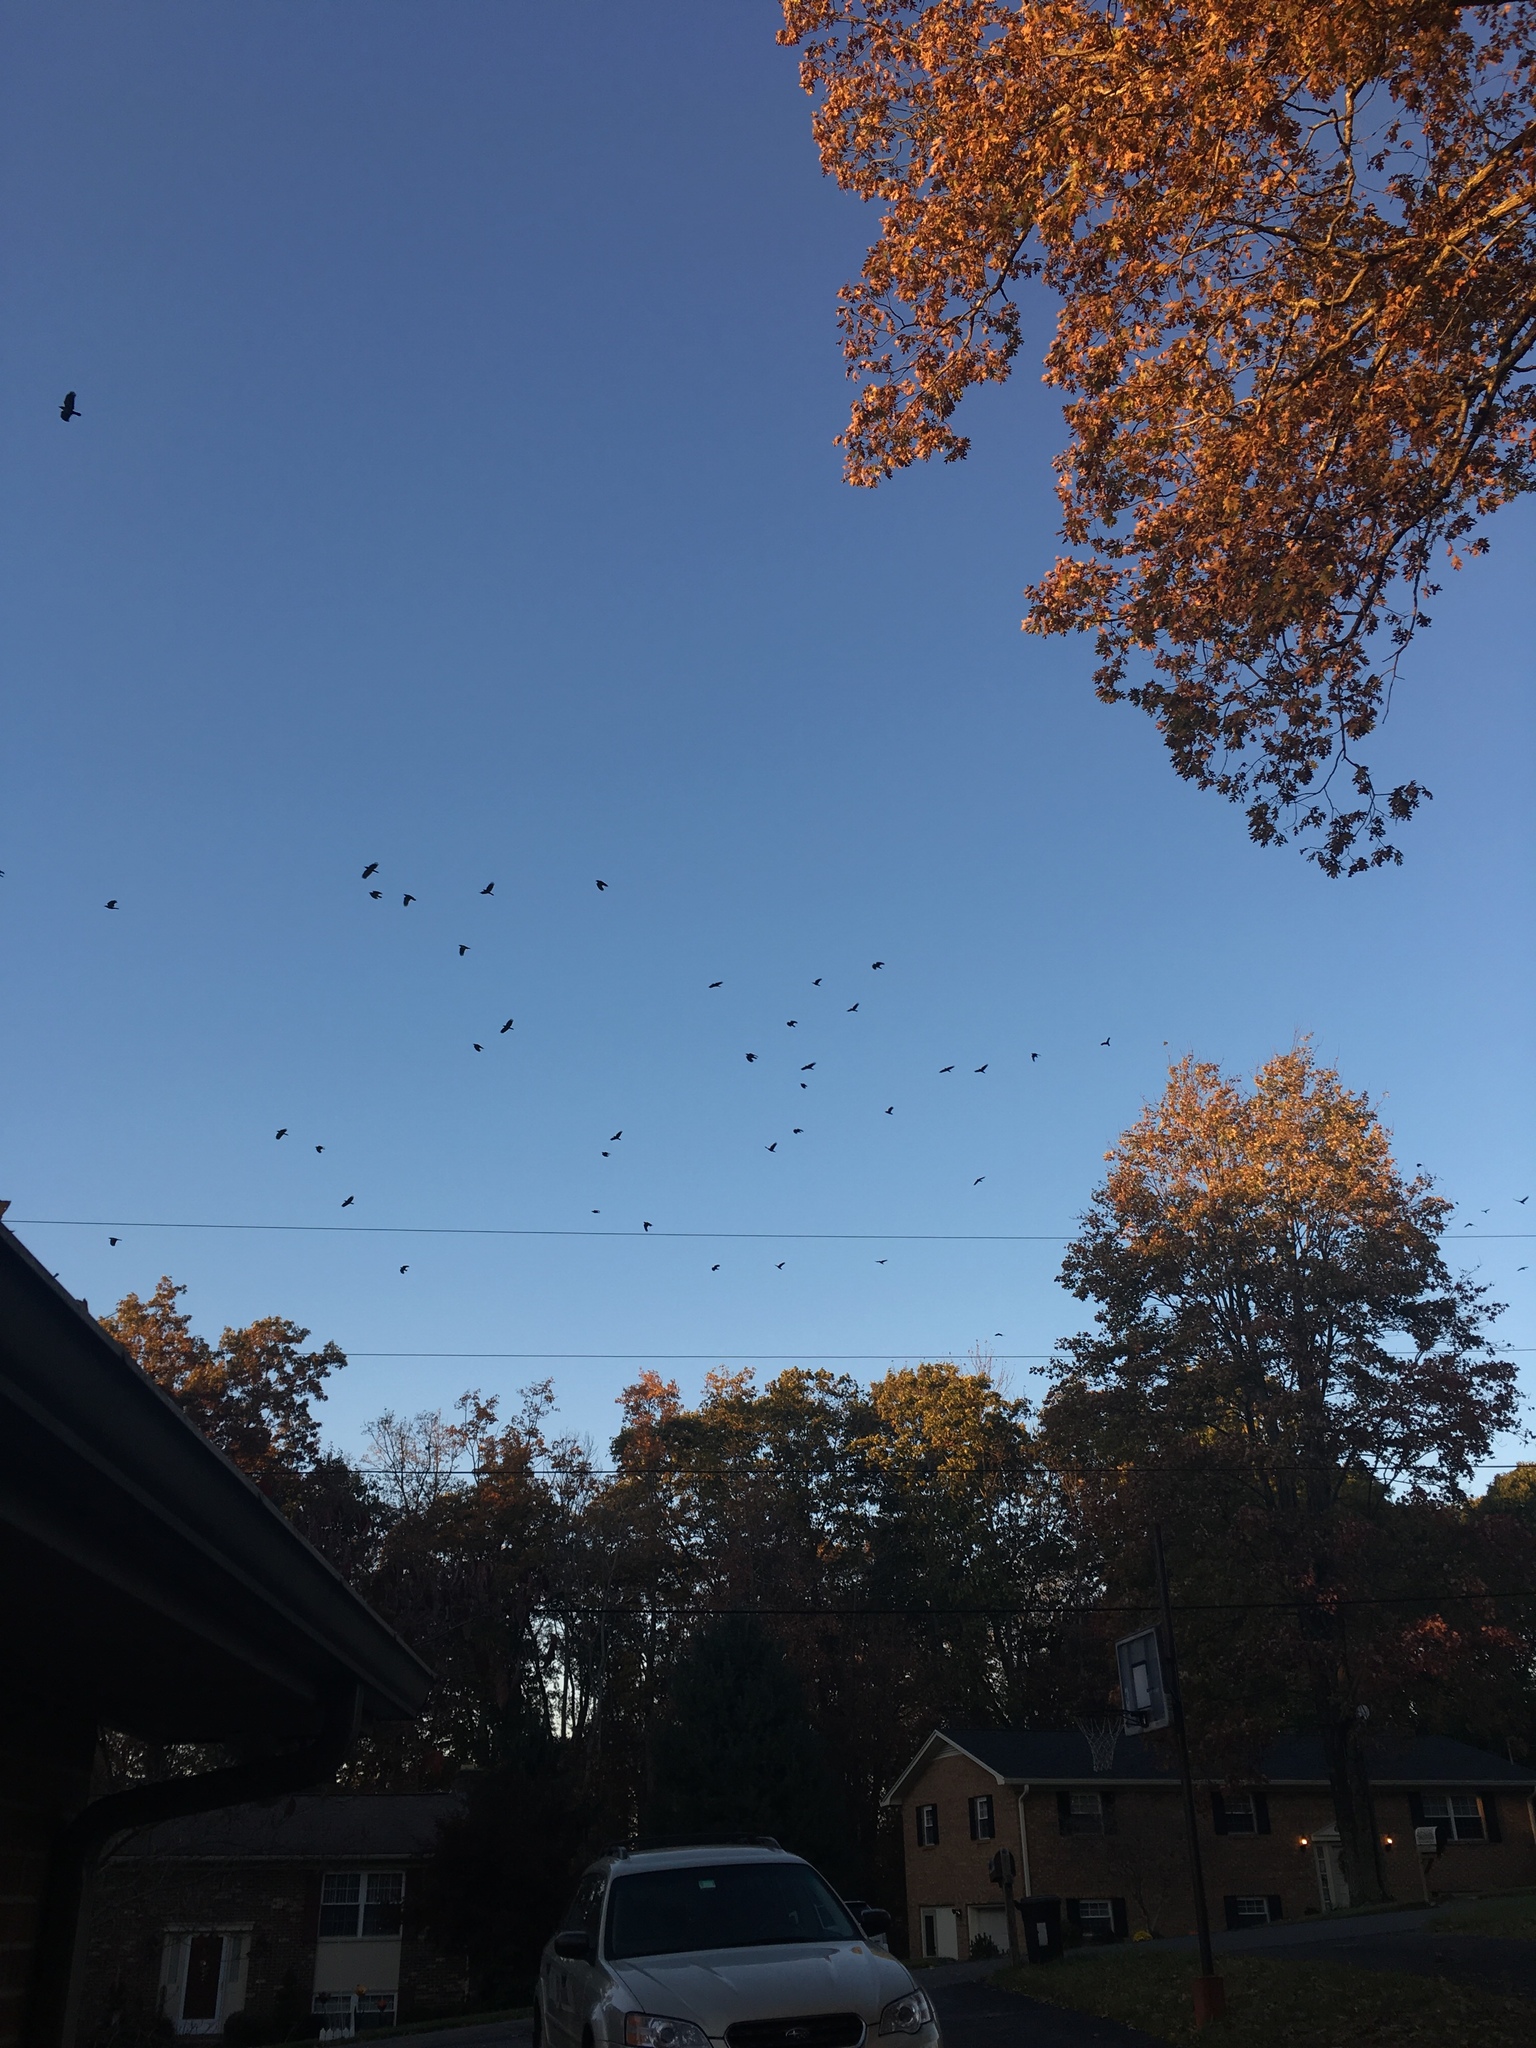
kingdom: Animalia
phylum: Chordata
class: Aves
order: Passeriformes
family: Corvidae
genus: Corvus
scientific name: Corvus brachyrhynchos
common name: American crow
